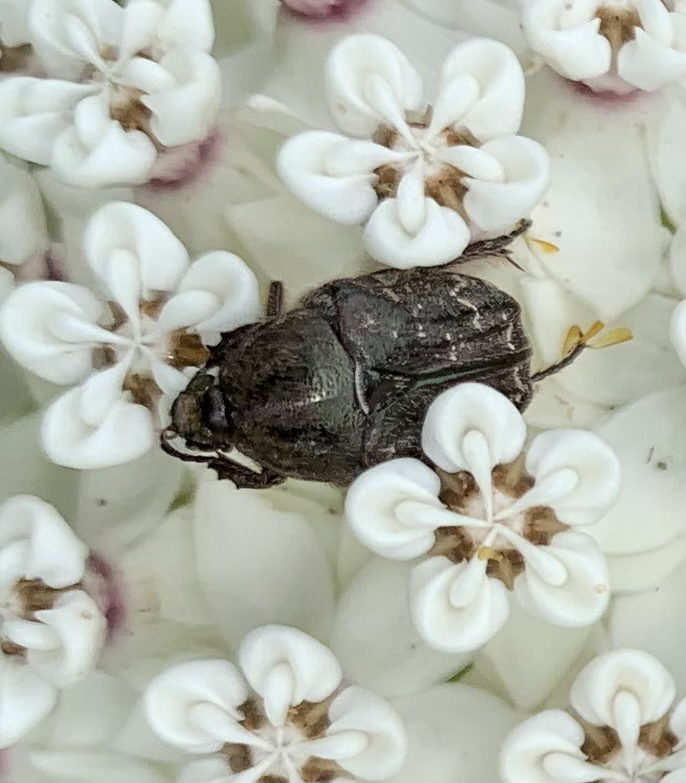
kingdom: Animalia
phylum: Arthropoda
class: Insecta
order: Coleoptera
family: Scarabaeidae
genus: Euphoria
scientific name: Euphoria sepulcralis
